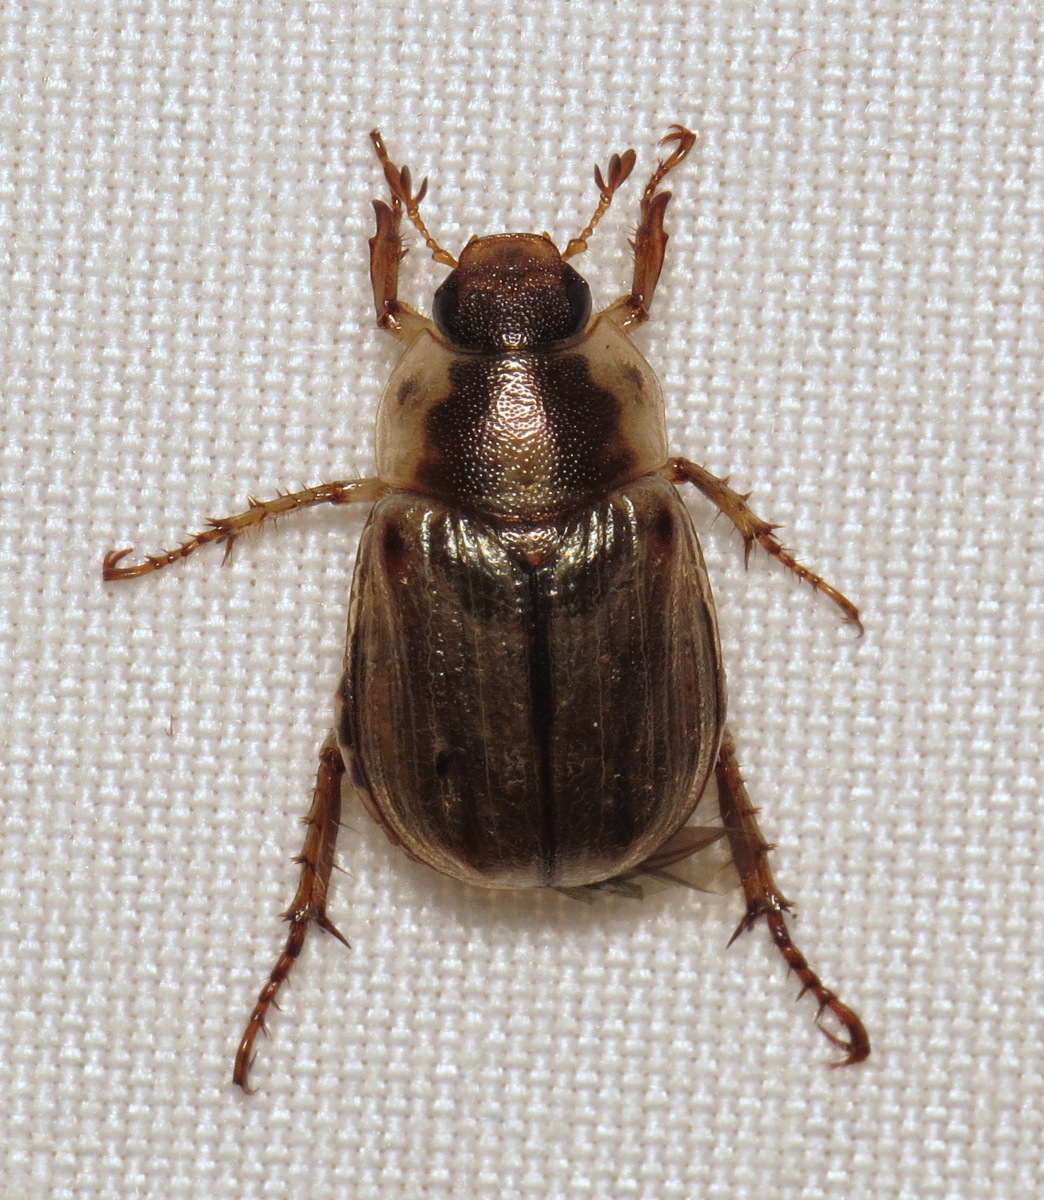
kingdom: Animalia
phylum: Arthropoda
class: Insecta
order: Coleoptera
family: Scarabaeidae
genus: Exomala
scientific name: Exomala orientalis
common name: Oriental beetle
